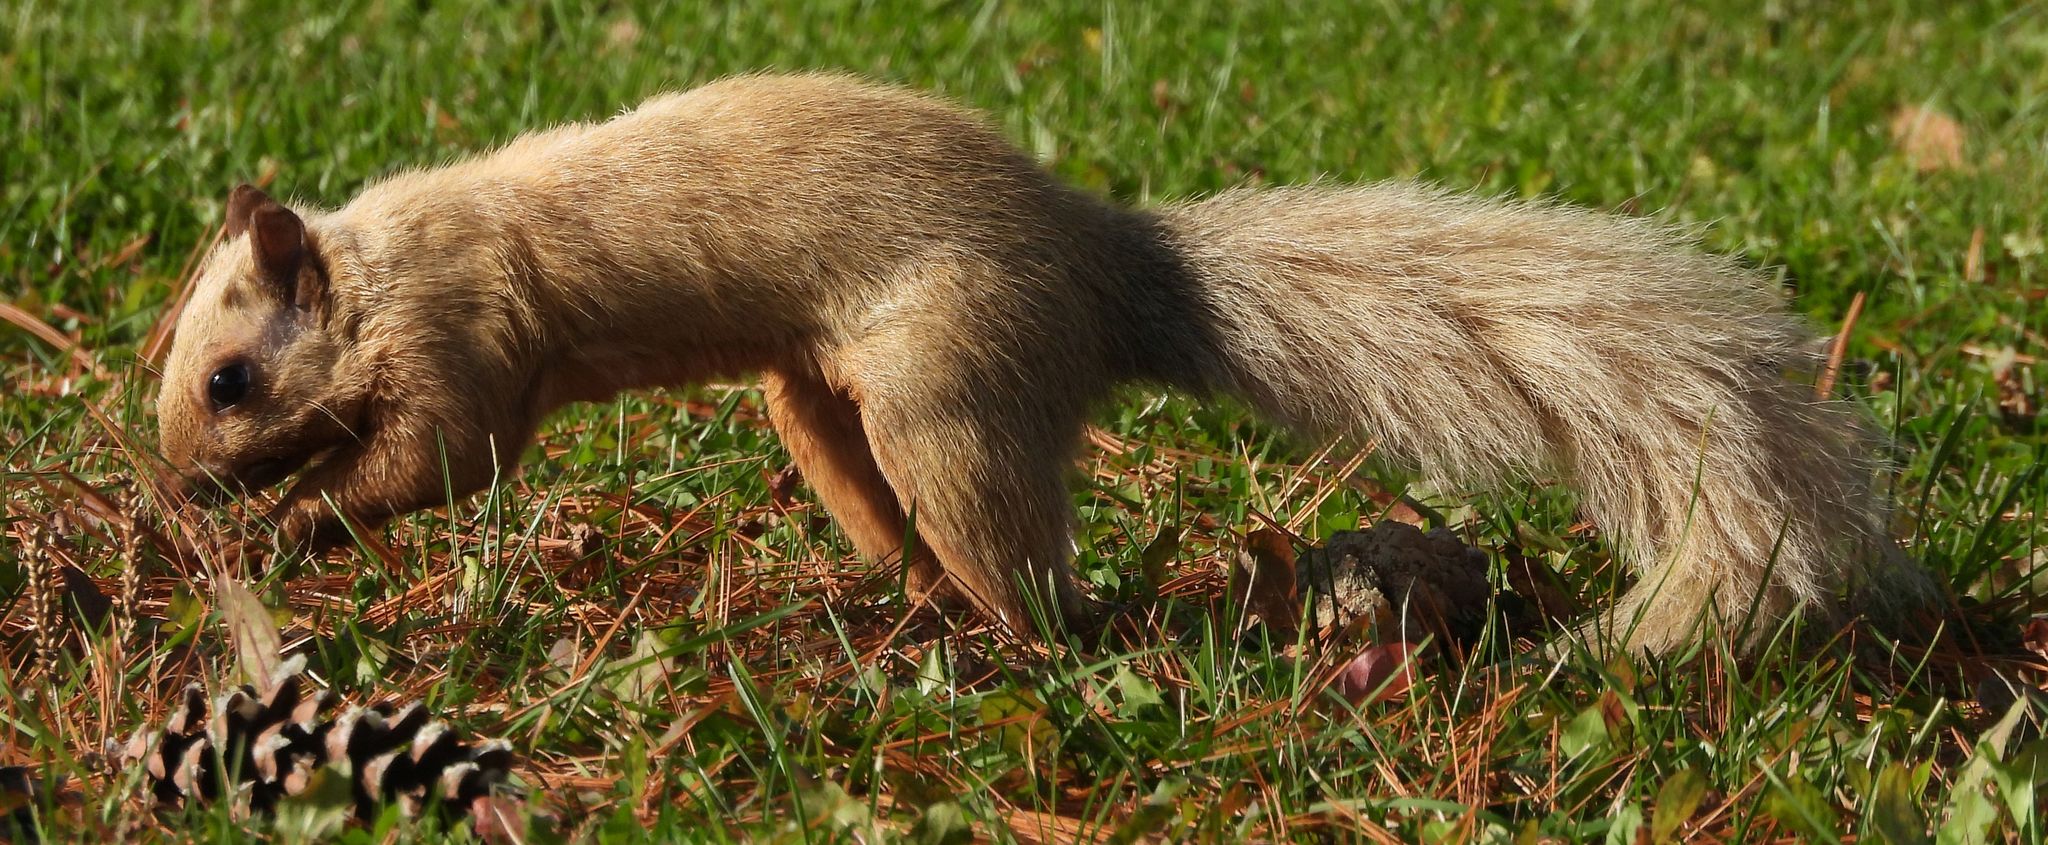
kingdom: Animalia
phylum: Chordata
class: Mammalia
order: Rodentia
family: Sciuridae
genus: Sciurus
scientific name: Sciurus carolinensis
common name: Eastern gray squirrel
